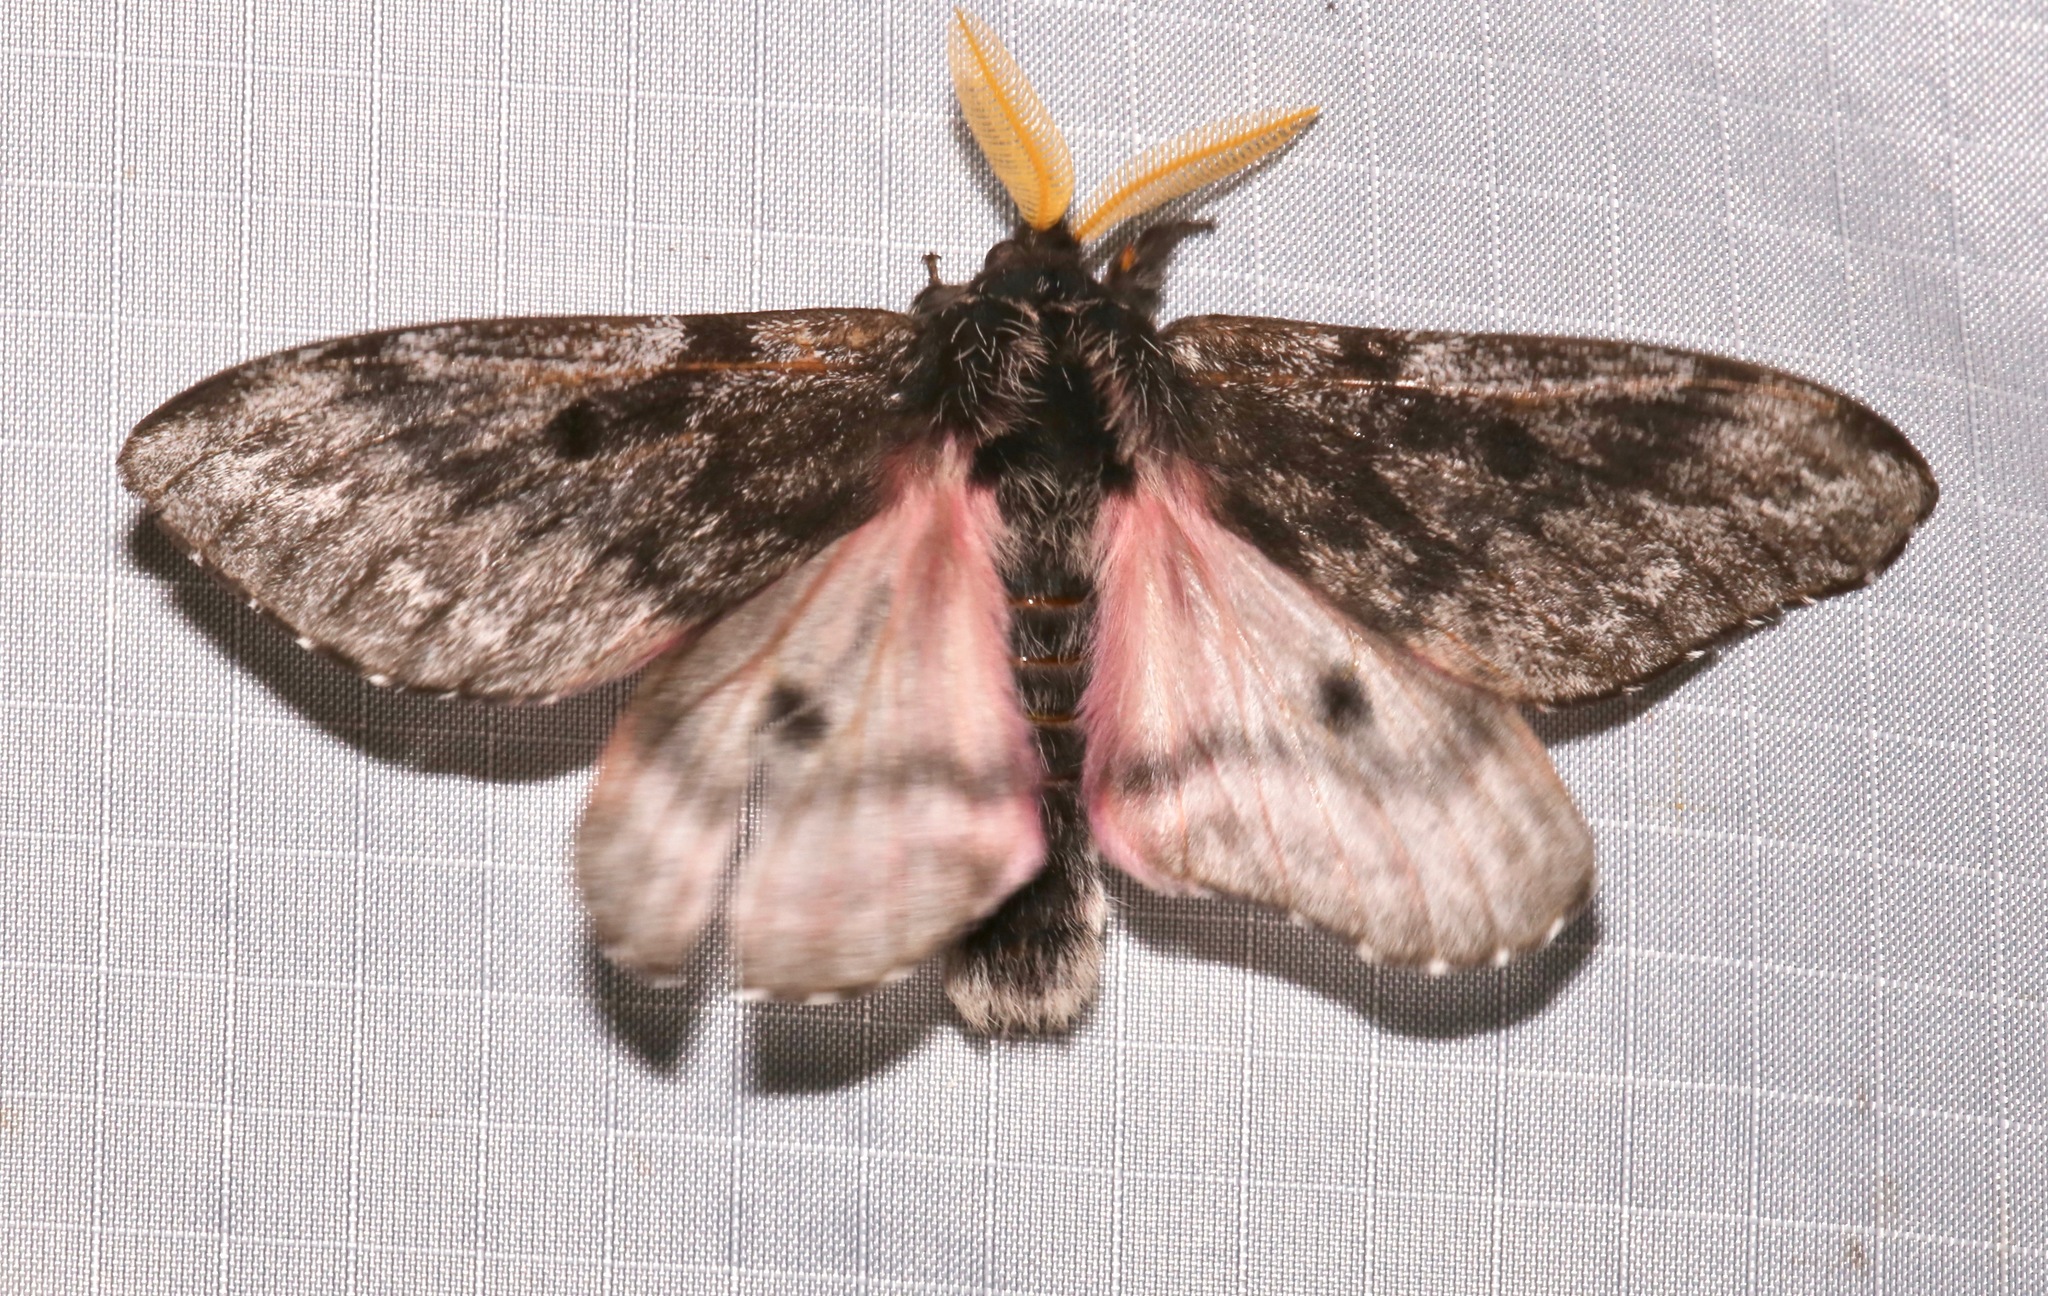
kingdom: Animalia
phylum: Arthropoda
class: Insecta
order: Lepidoptera
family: Saturniidae
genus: Coloradia
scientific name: Coloradia pandora
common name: Pandora pinemoth
